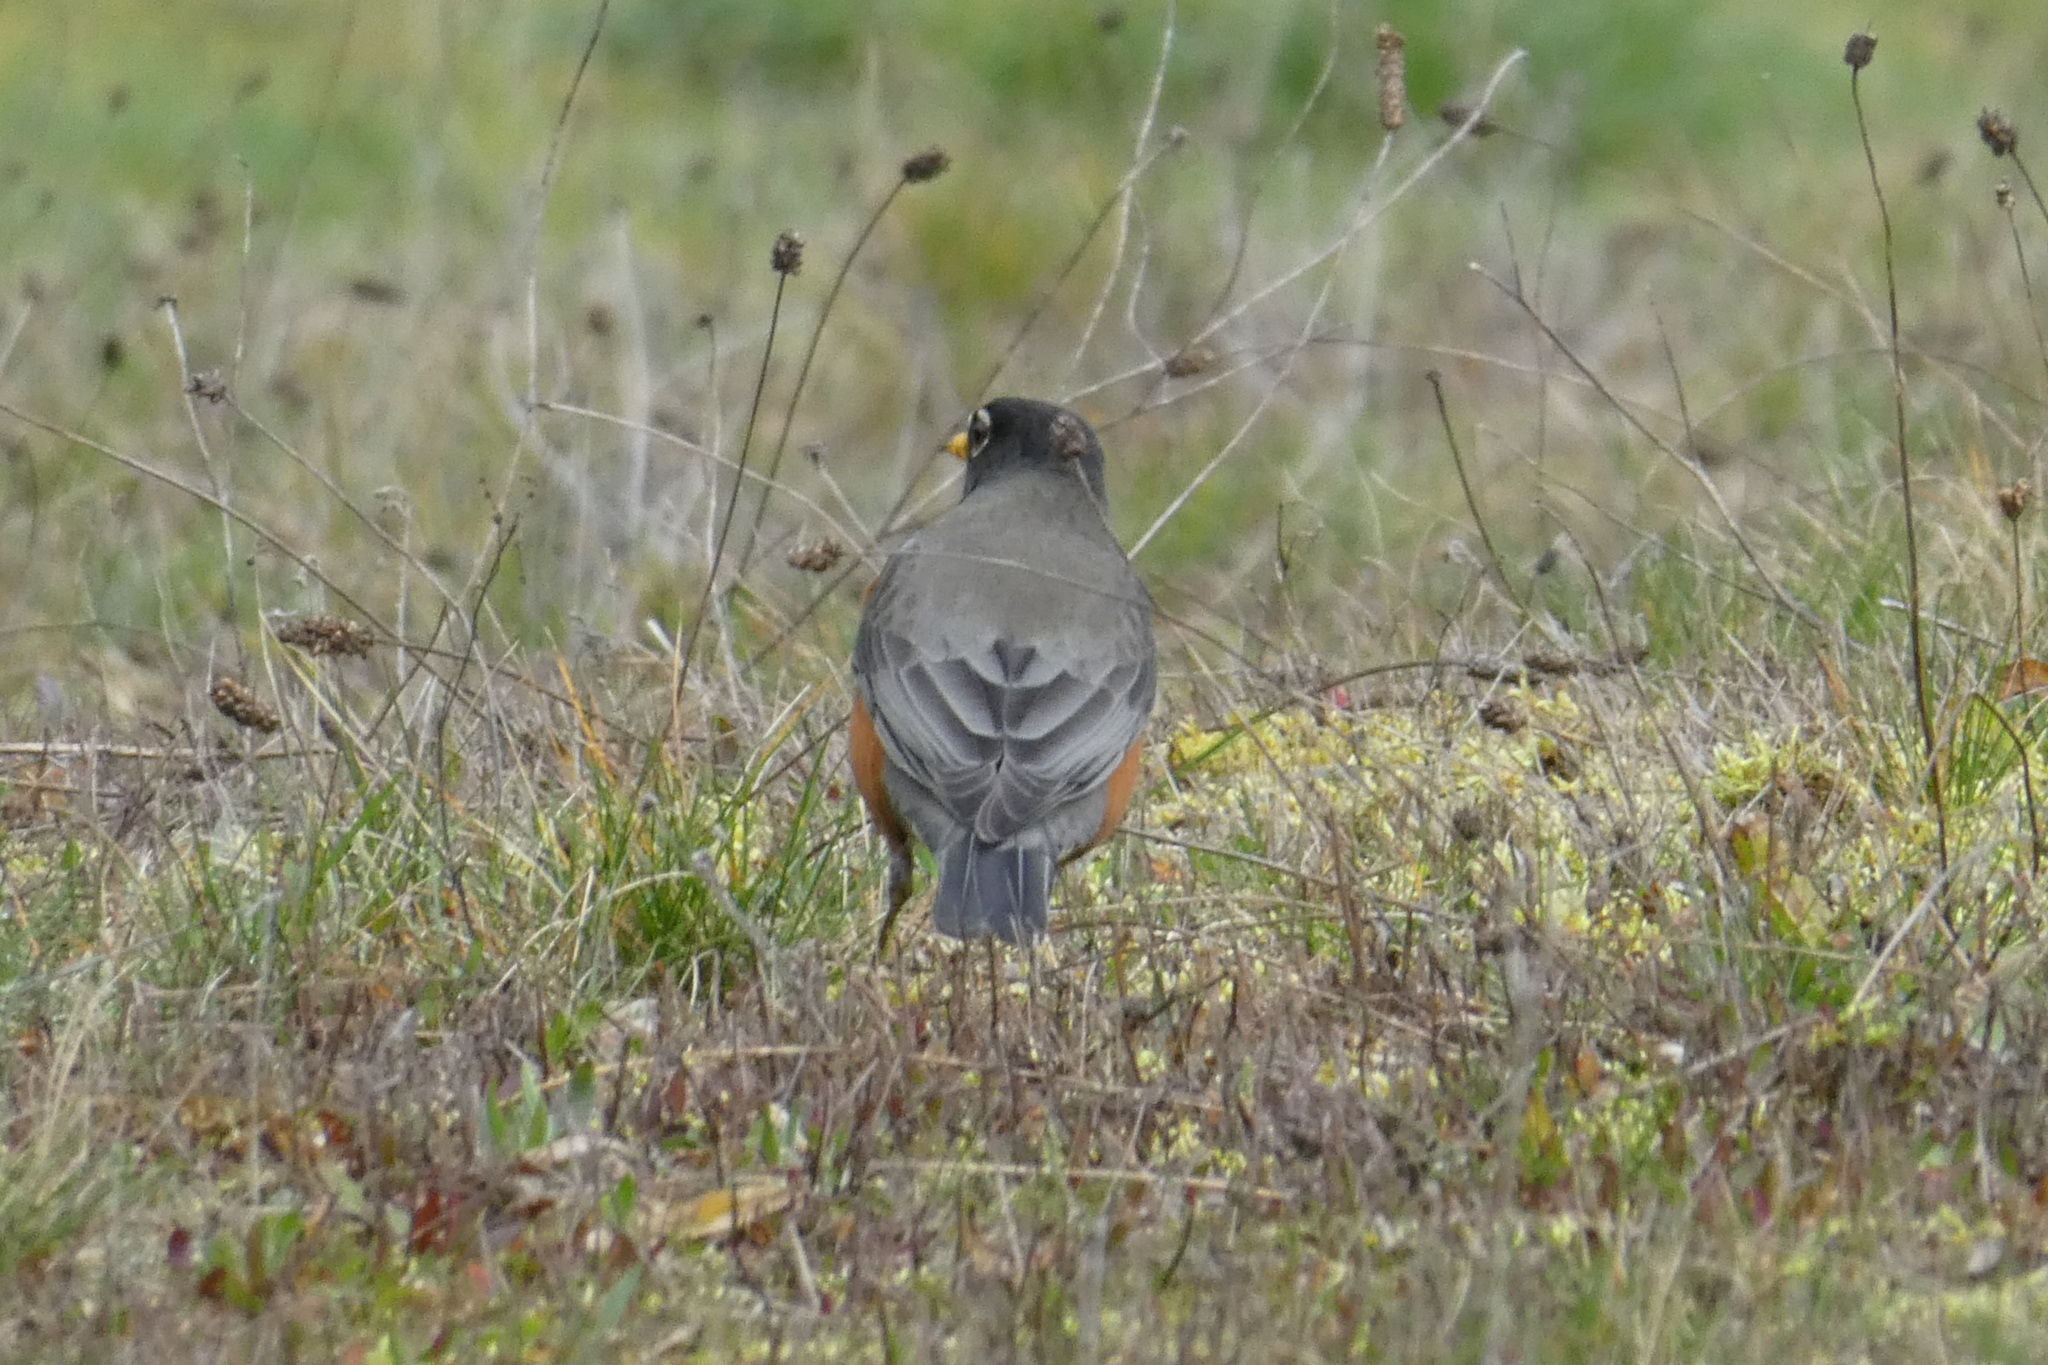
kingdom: Animalia
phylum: Chordata
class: Aves
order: Passeriformes
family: Turdidae
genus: Turdus
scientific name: Turdus migratorius
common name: American robin
